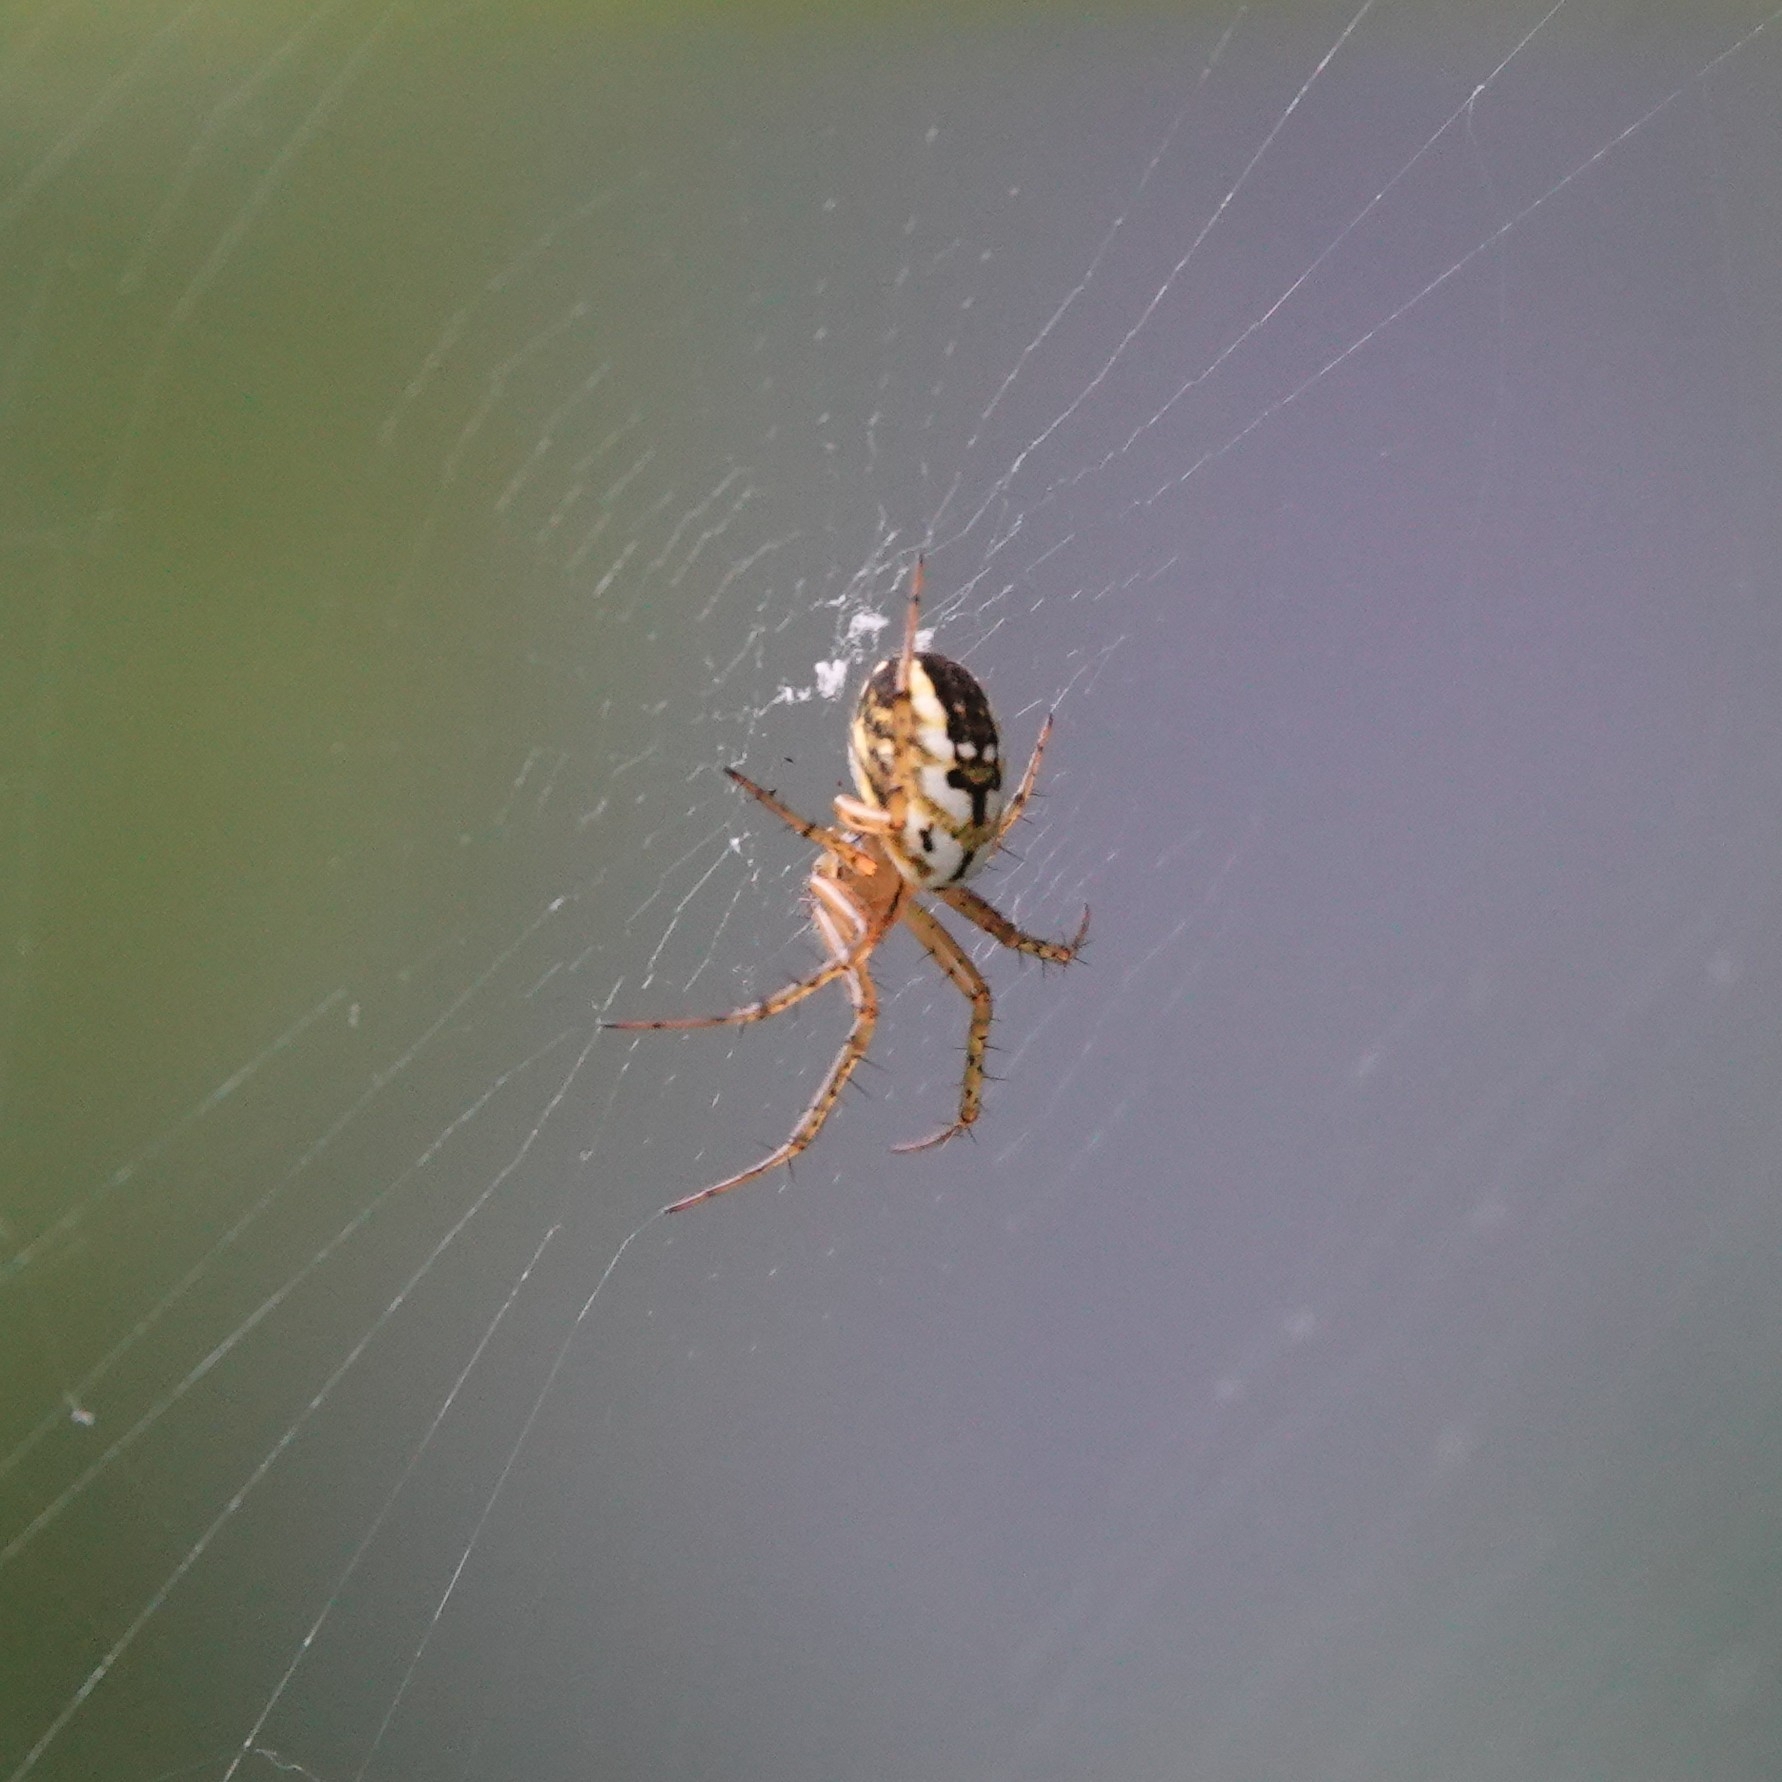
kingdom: Animalia
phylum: Arthropoda
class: Arachnida
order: Araneae
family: Araneidae
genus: Mangora
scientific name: Mangora acalypha
